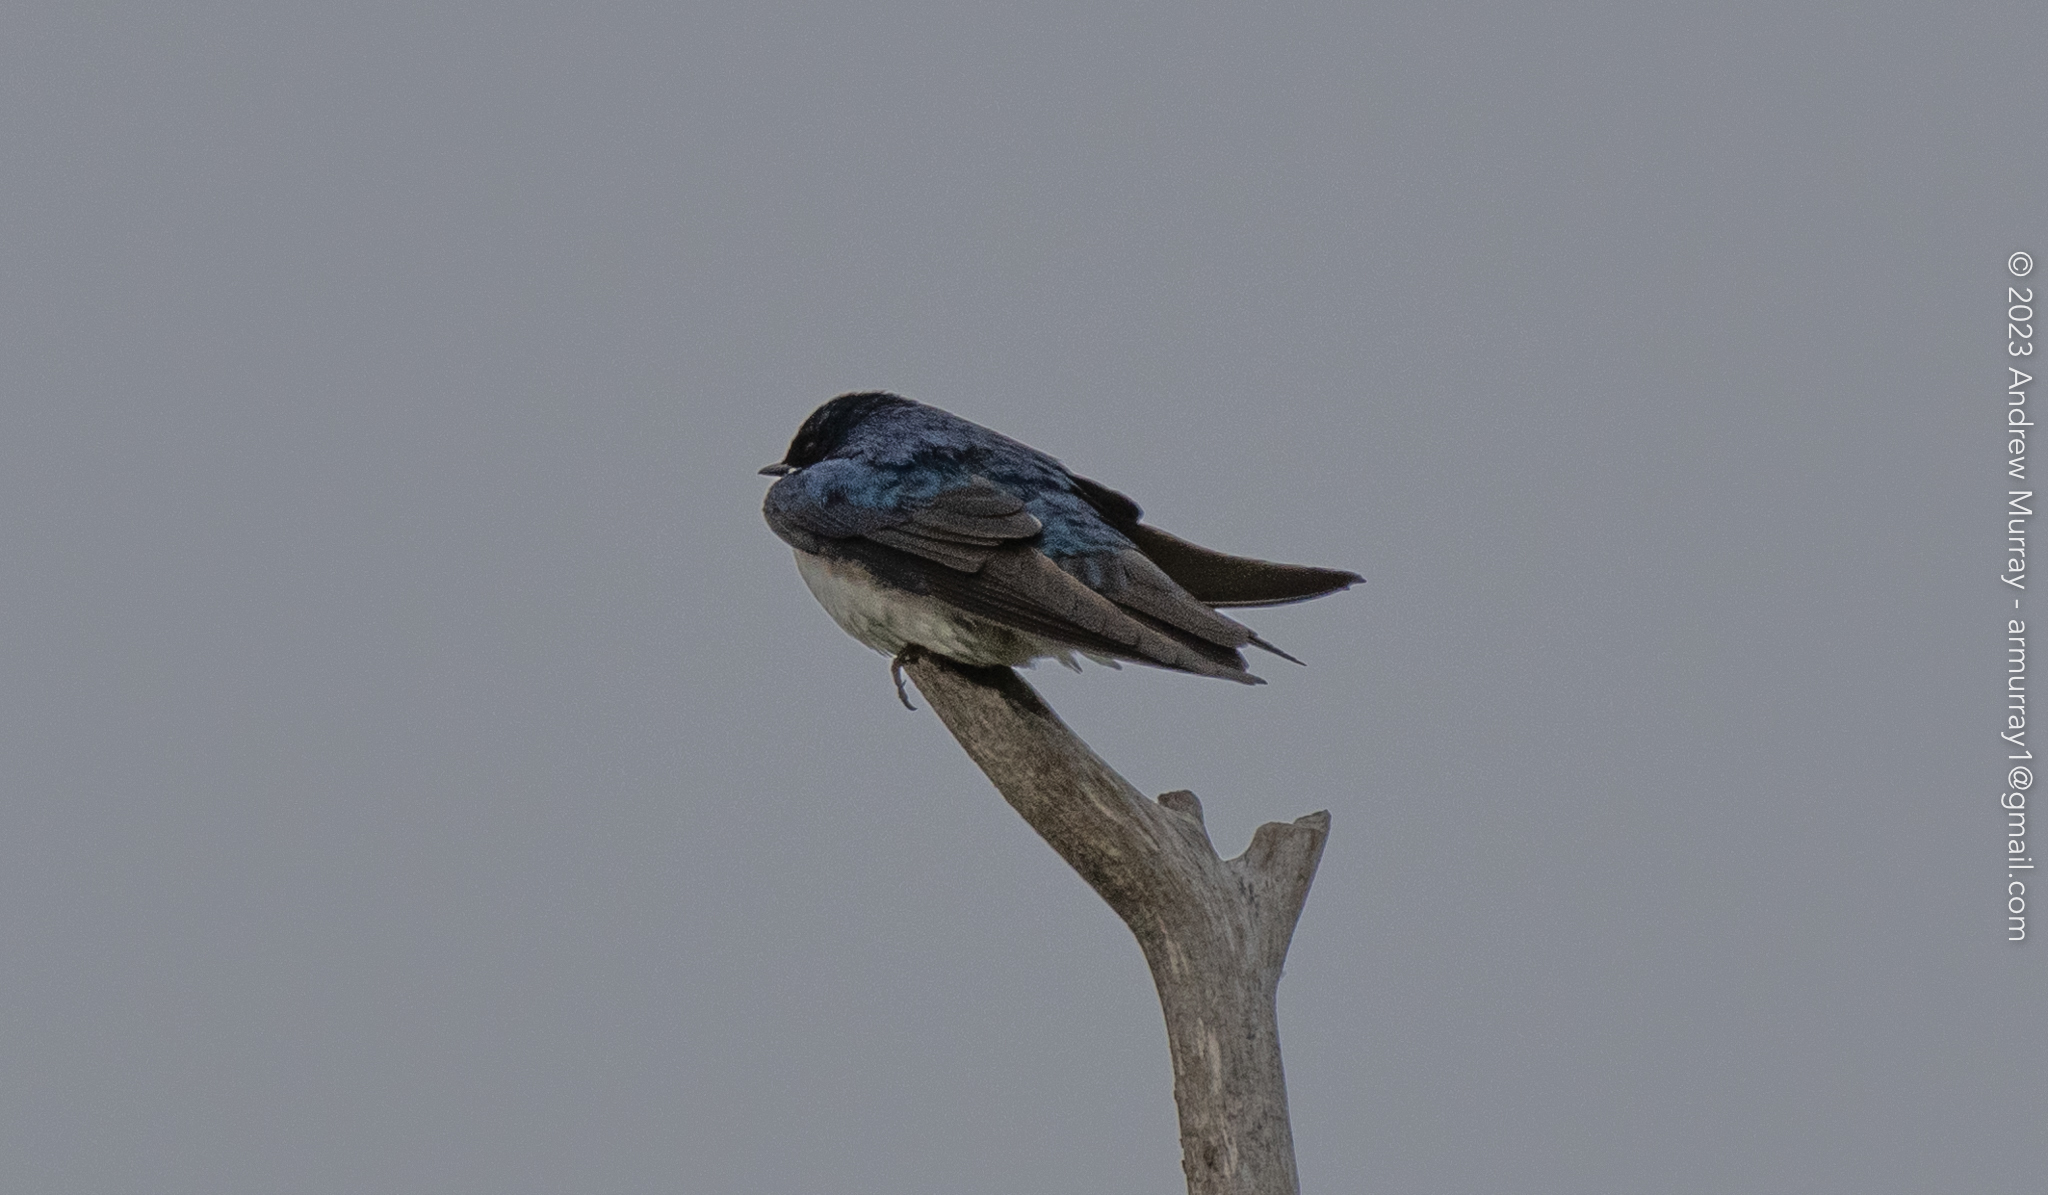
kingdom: Animalia
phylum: Chordata
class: Aves
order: Passeriformes
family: Hirundinidae
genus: Tachycineta
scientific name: Tachycineta bicolor
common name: Tree swallow
